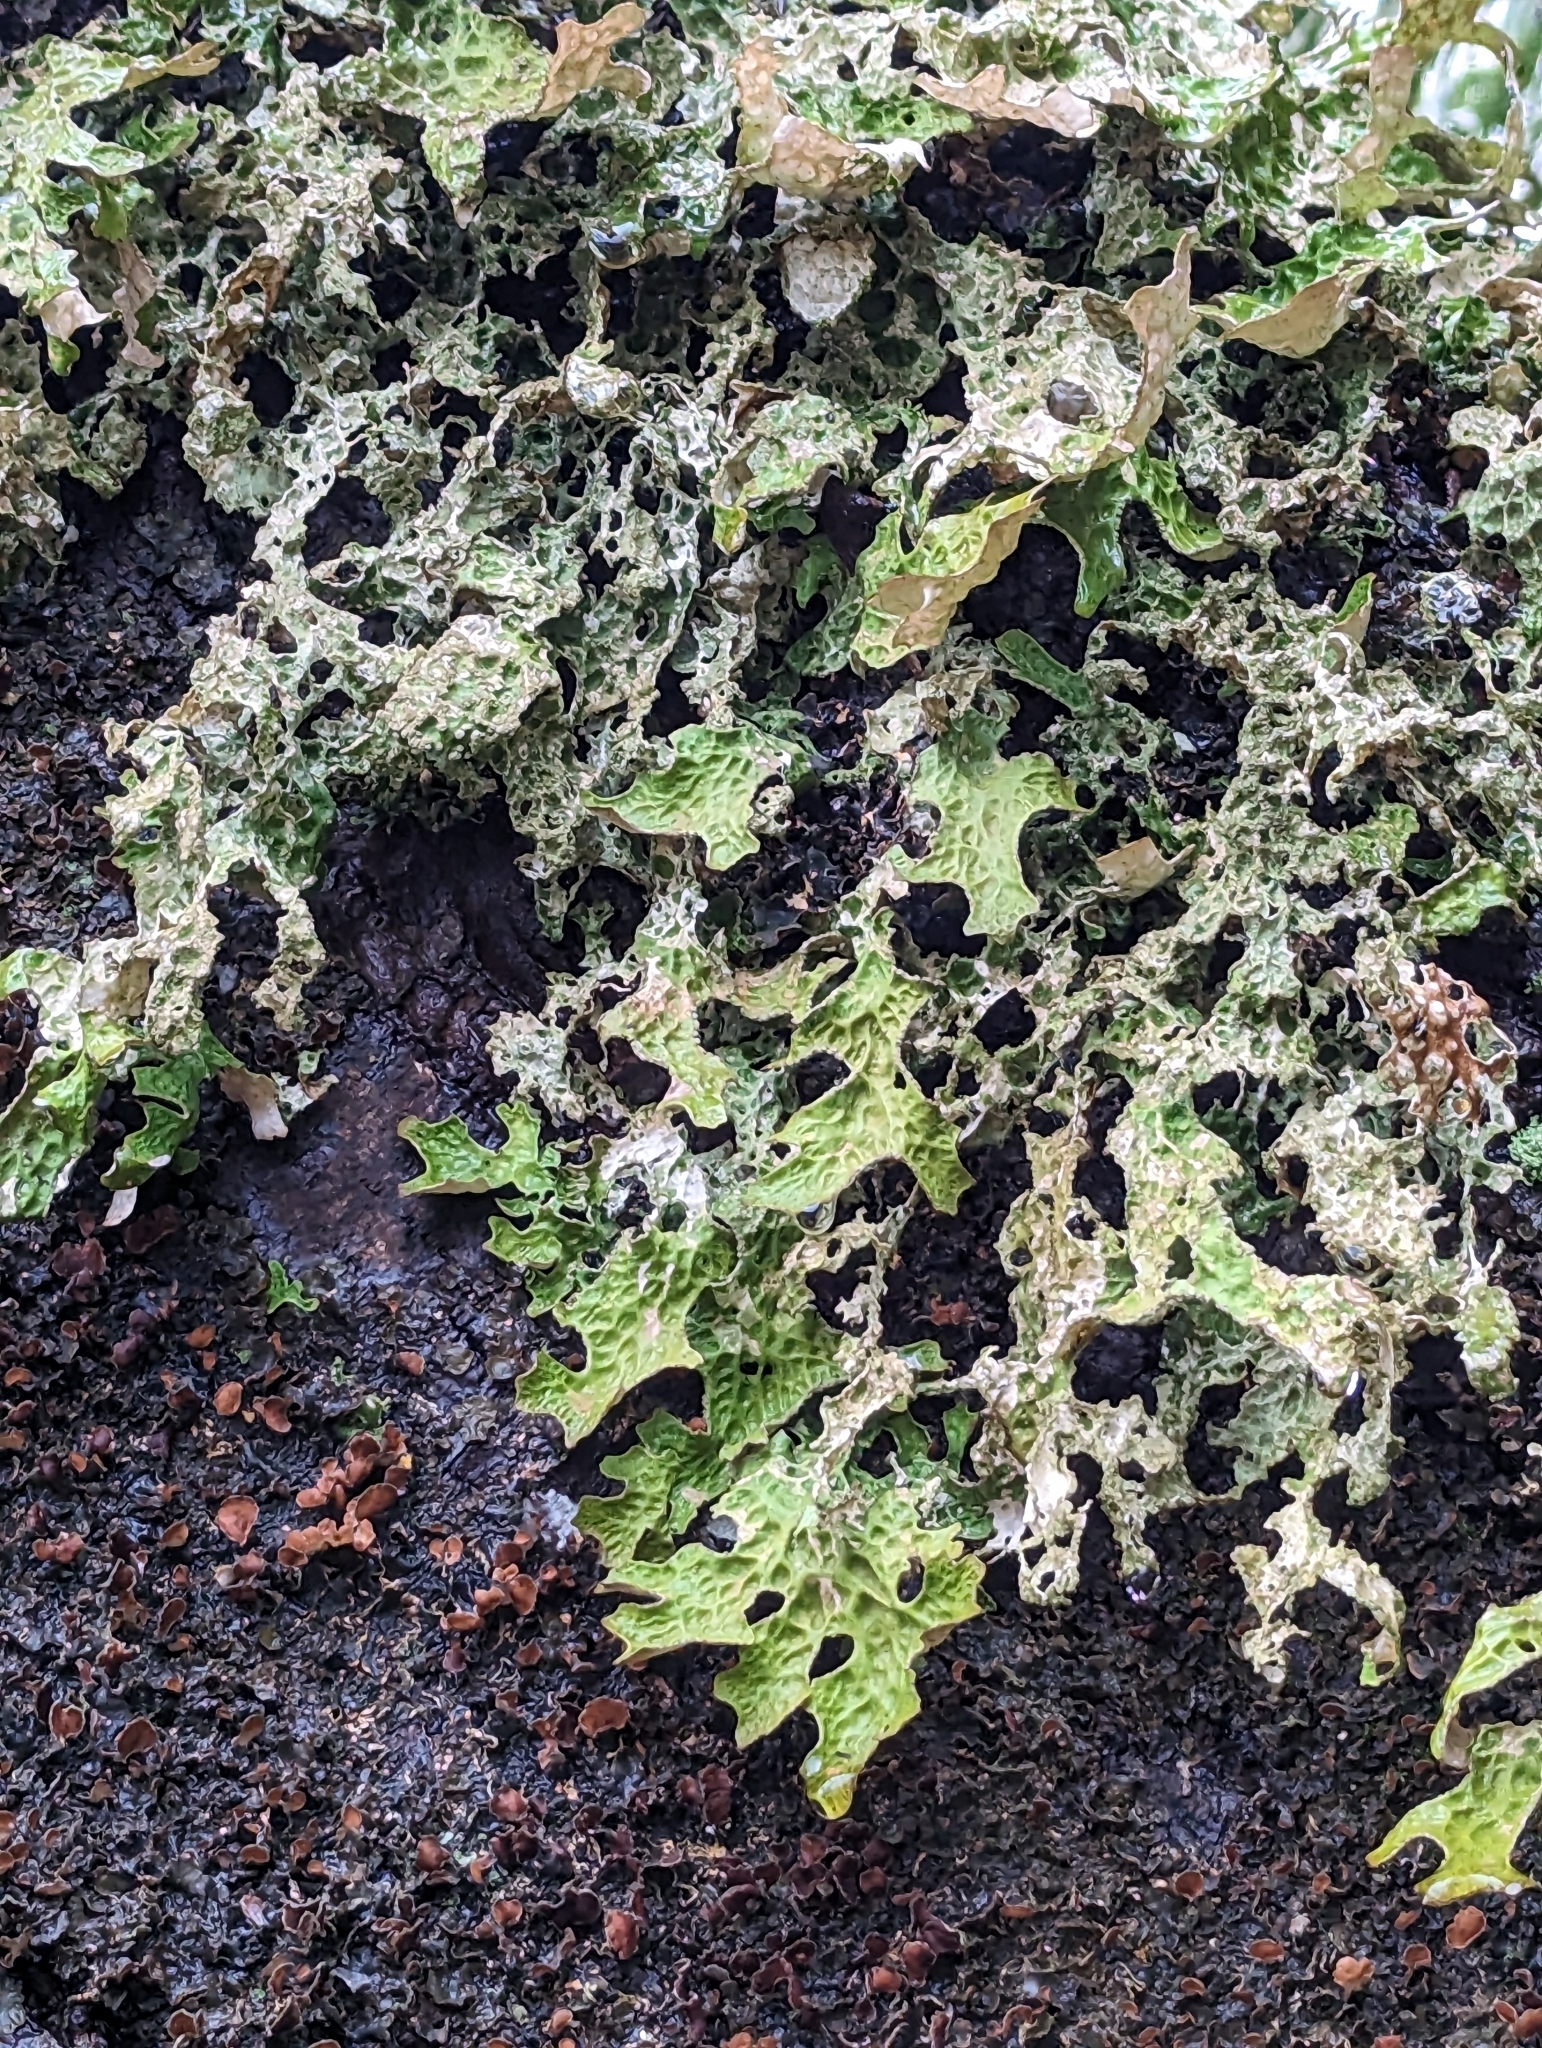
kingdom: Fungi
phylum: Ascomycota
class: Lecanoromycetes
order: Peltigerales
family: Lobariaceae
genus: Lobaria
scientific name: Lobaria pulmonaria
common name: Lungwort
